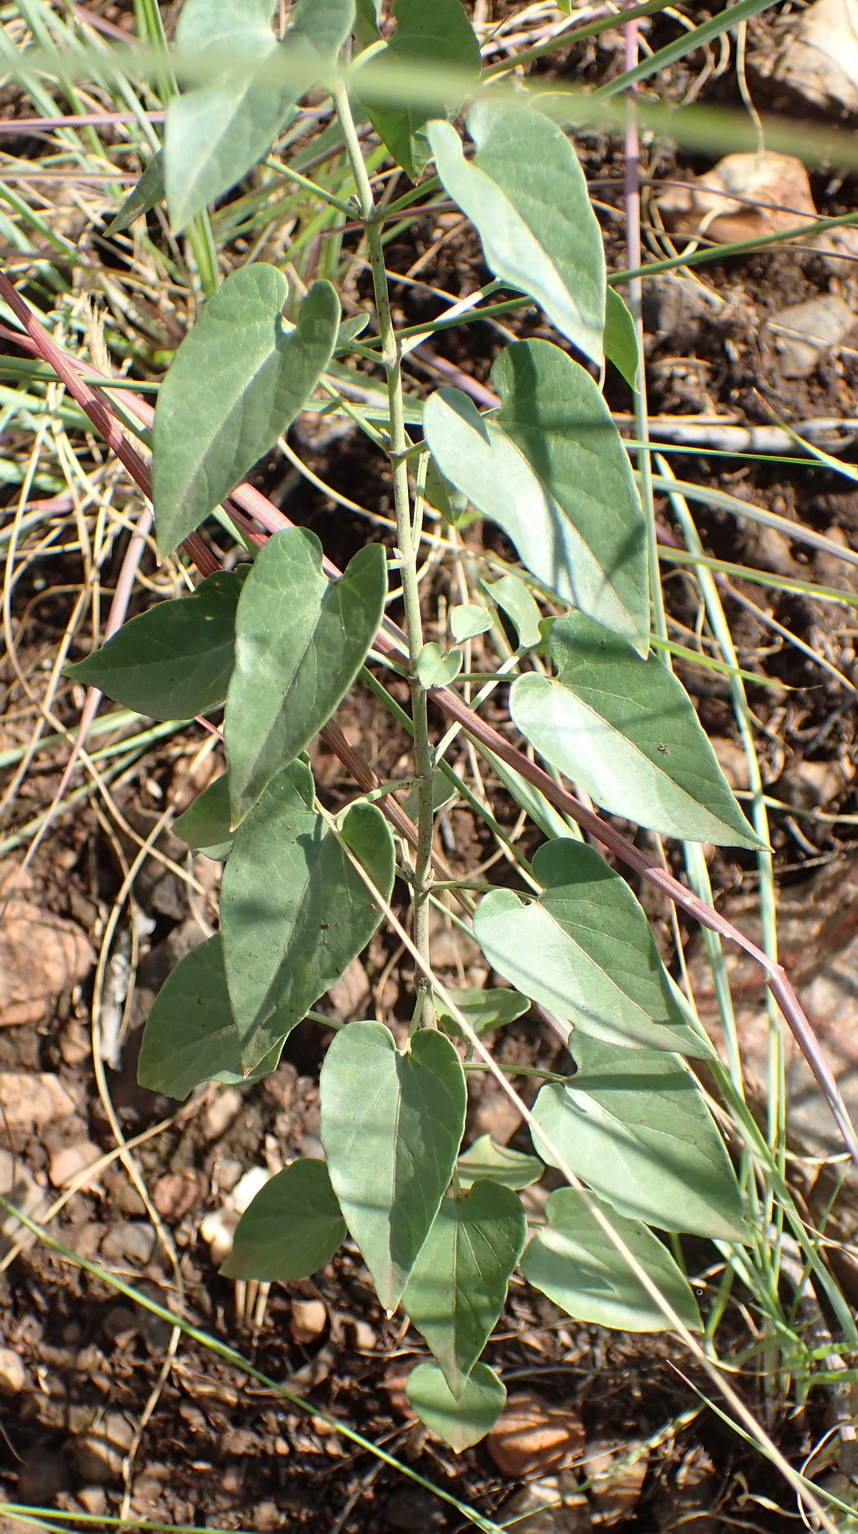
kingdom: Plantae
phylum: Tracheophyta
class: Magnoliopsida
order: Gentianales
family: Apocynaceae
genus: Cynanchum
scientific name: Cynanchum
